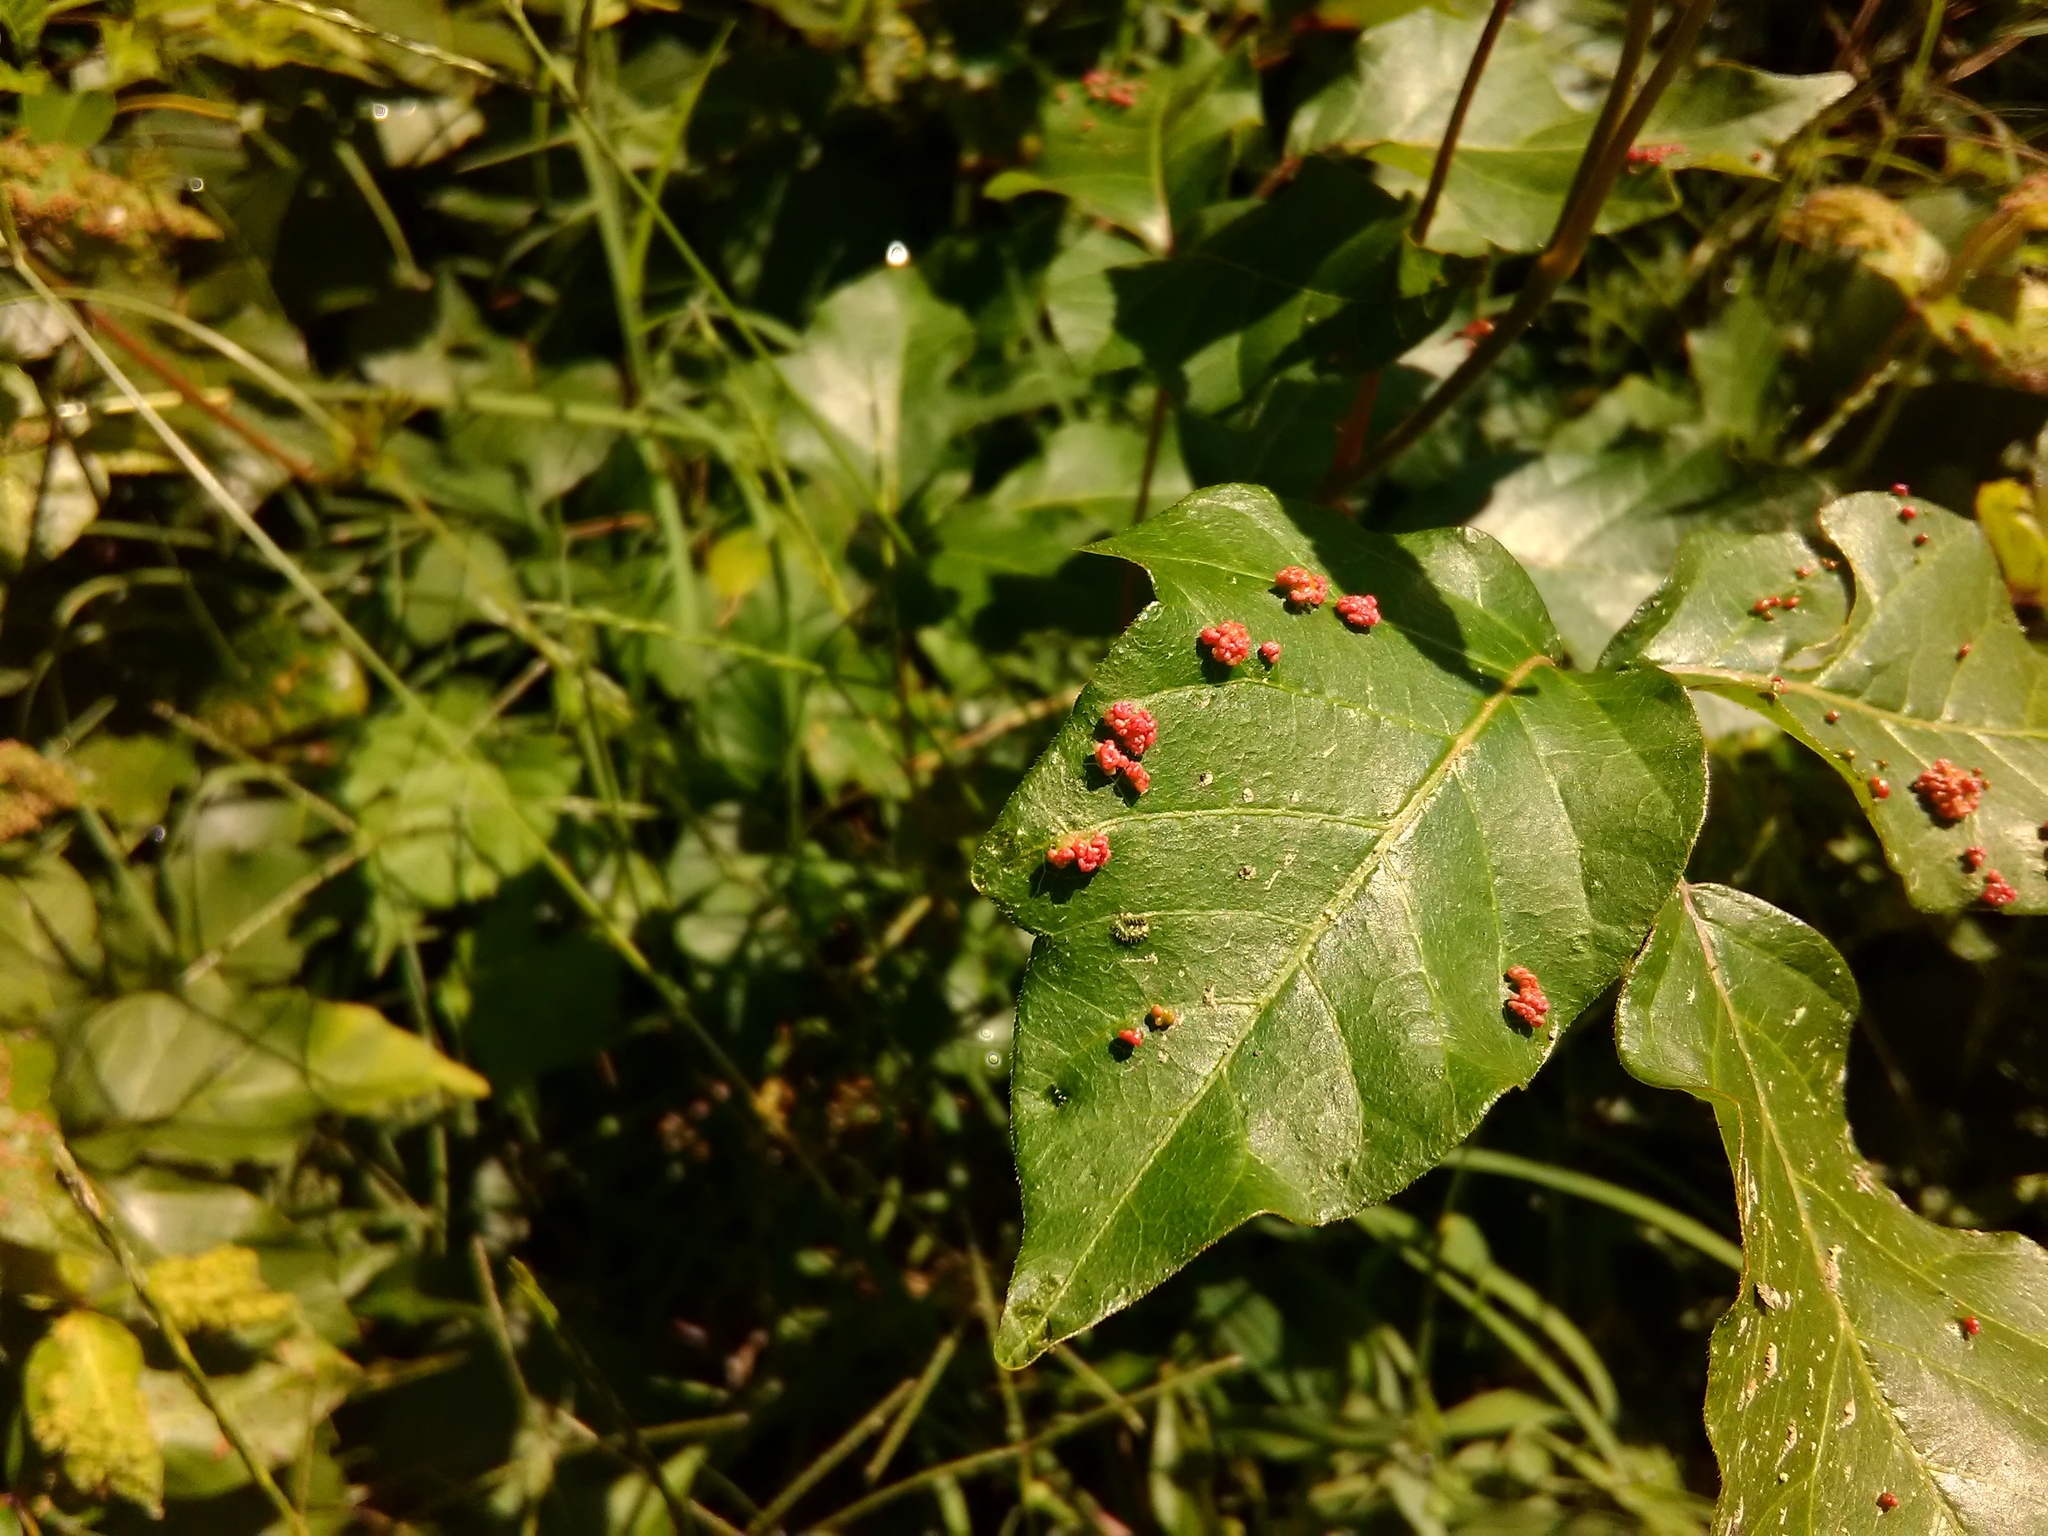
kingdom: Animalia
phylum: Arthropoda
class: Arachnida
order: Trombidiformes
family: Eriophyidae
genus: Aculops
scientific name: Aculops
